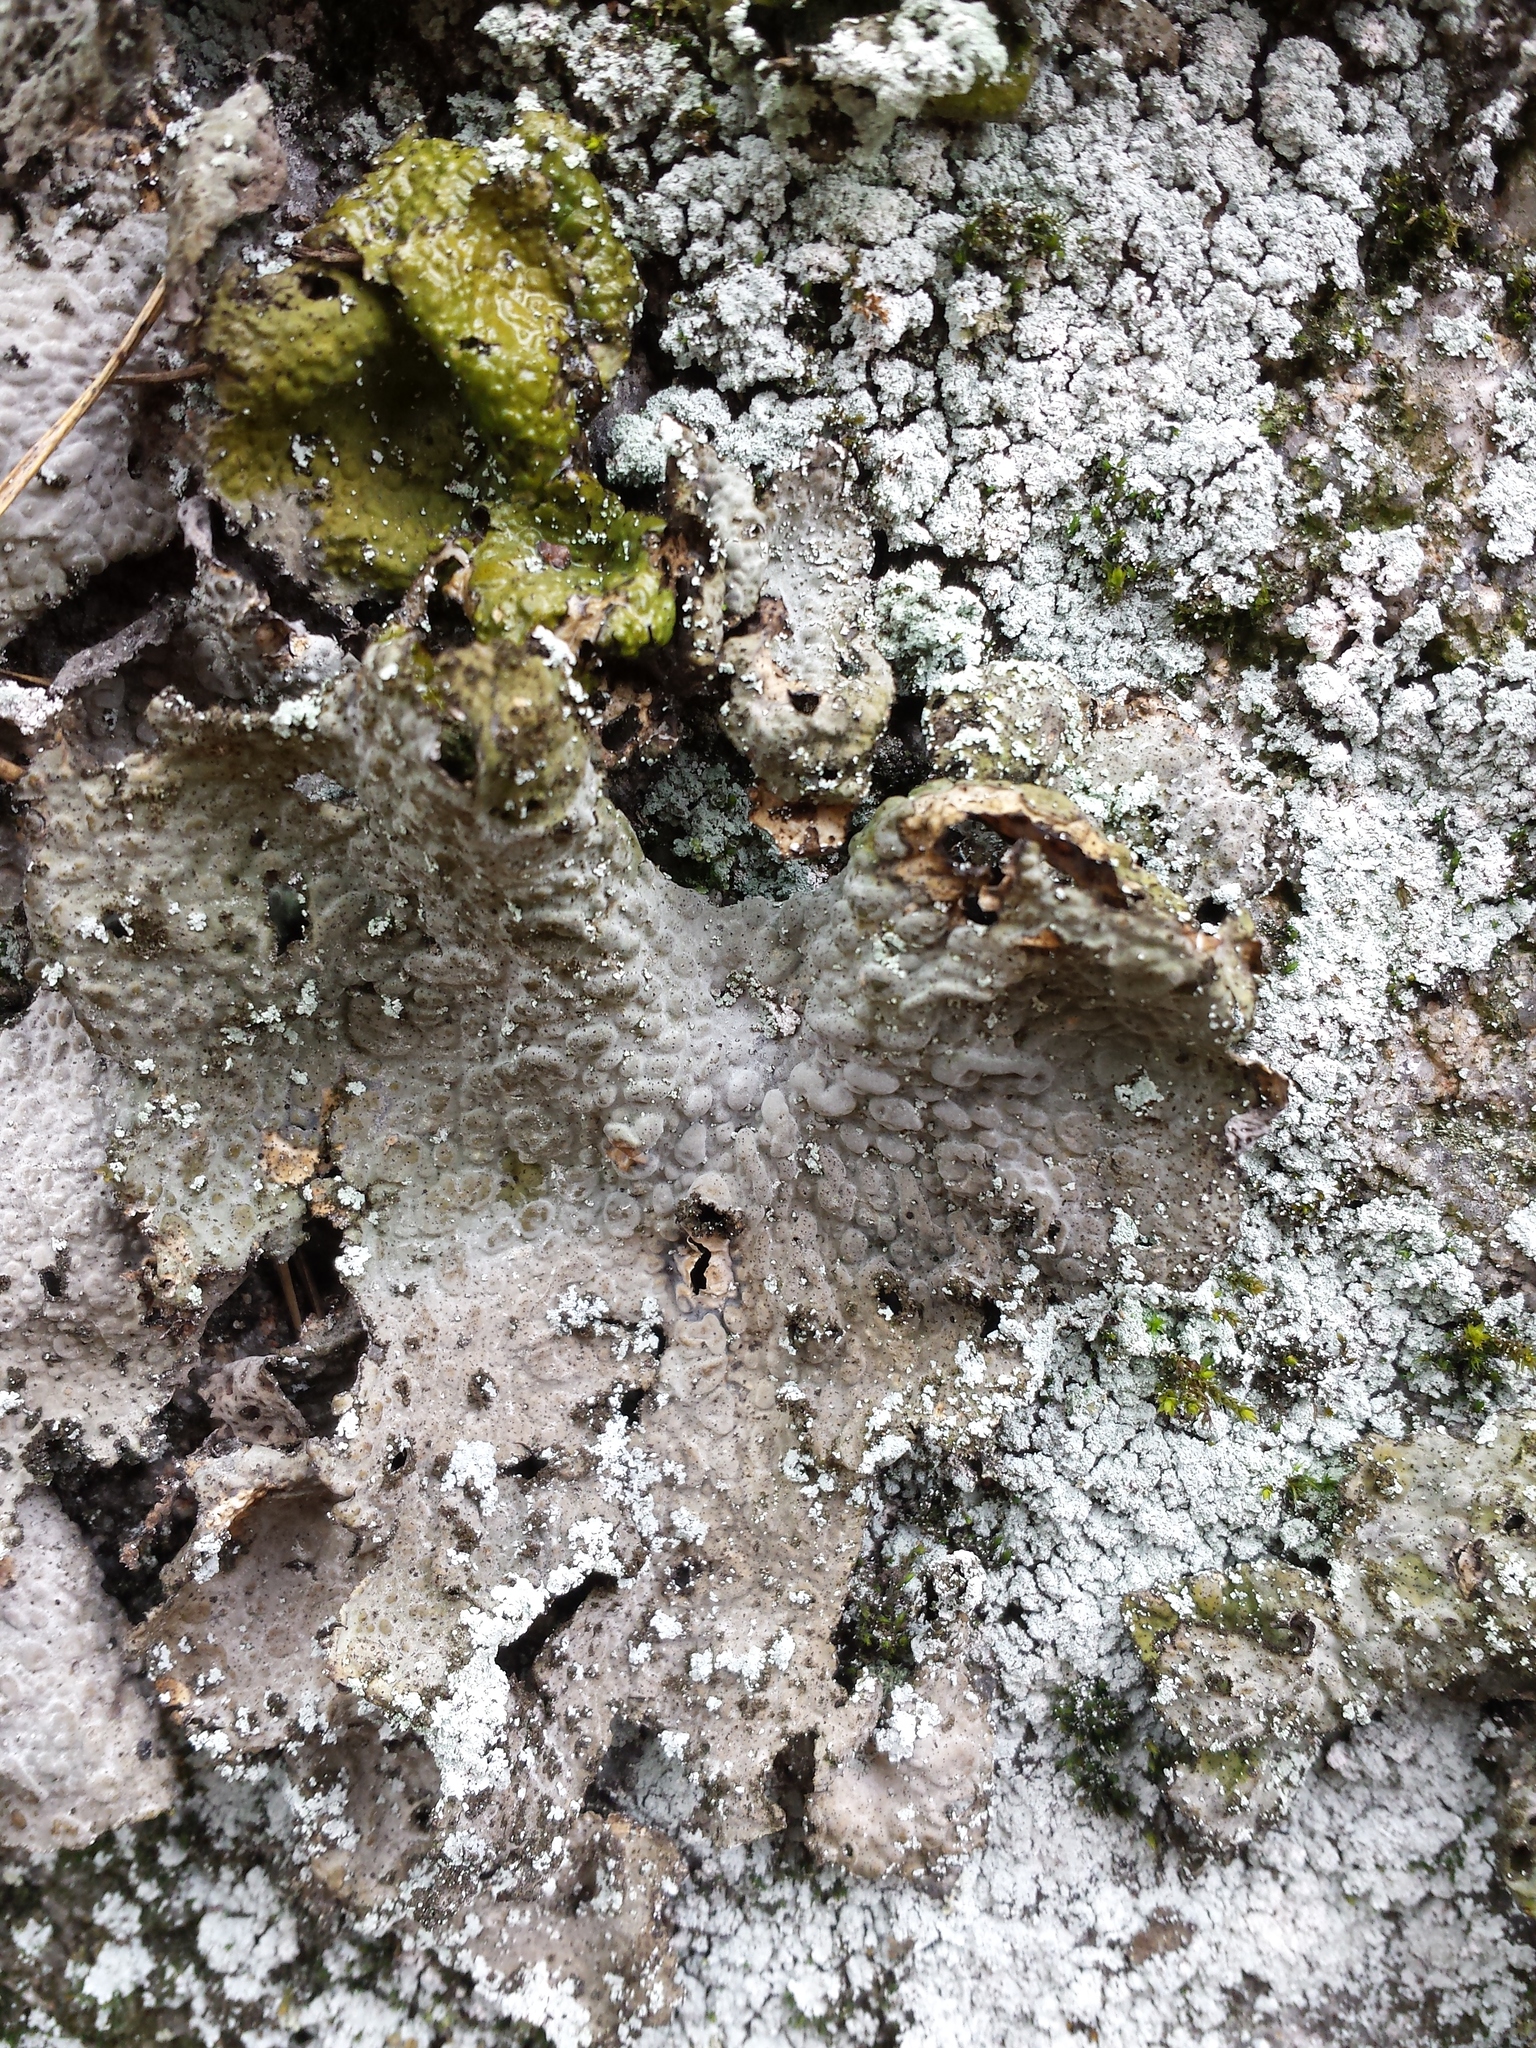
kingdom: Fungi
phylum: Ascomycota
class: Lecanoromycetes
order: Umbilicariales
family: Umbilicariaceae
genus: Lasallia
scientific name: Lasallia pustulata
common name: Blistered toadskin lichen
